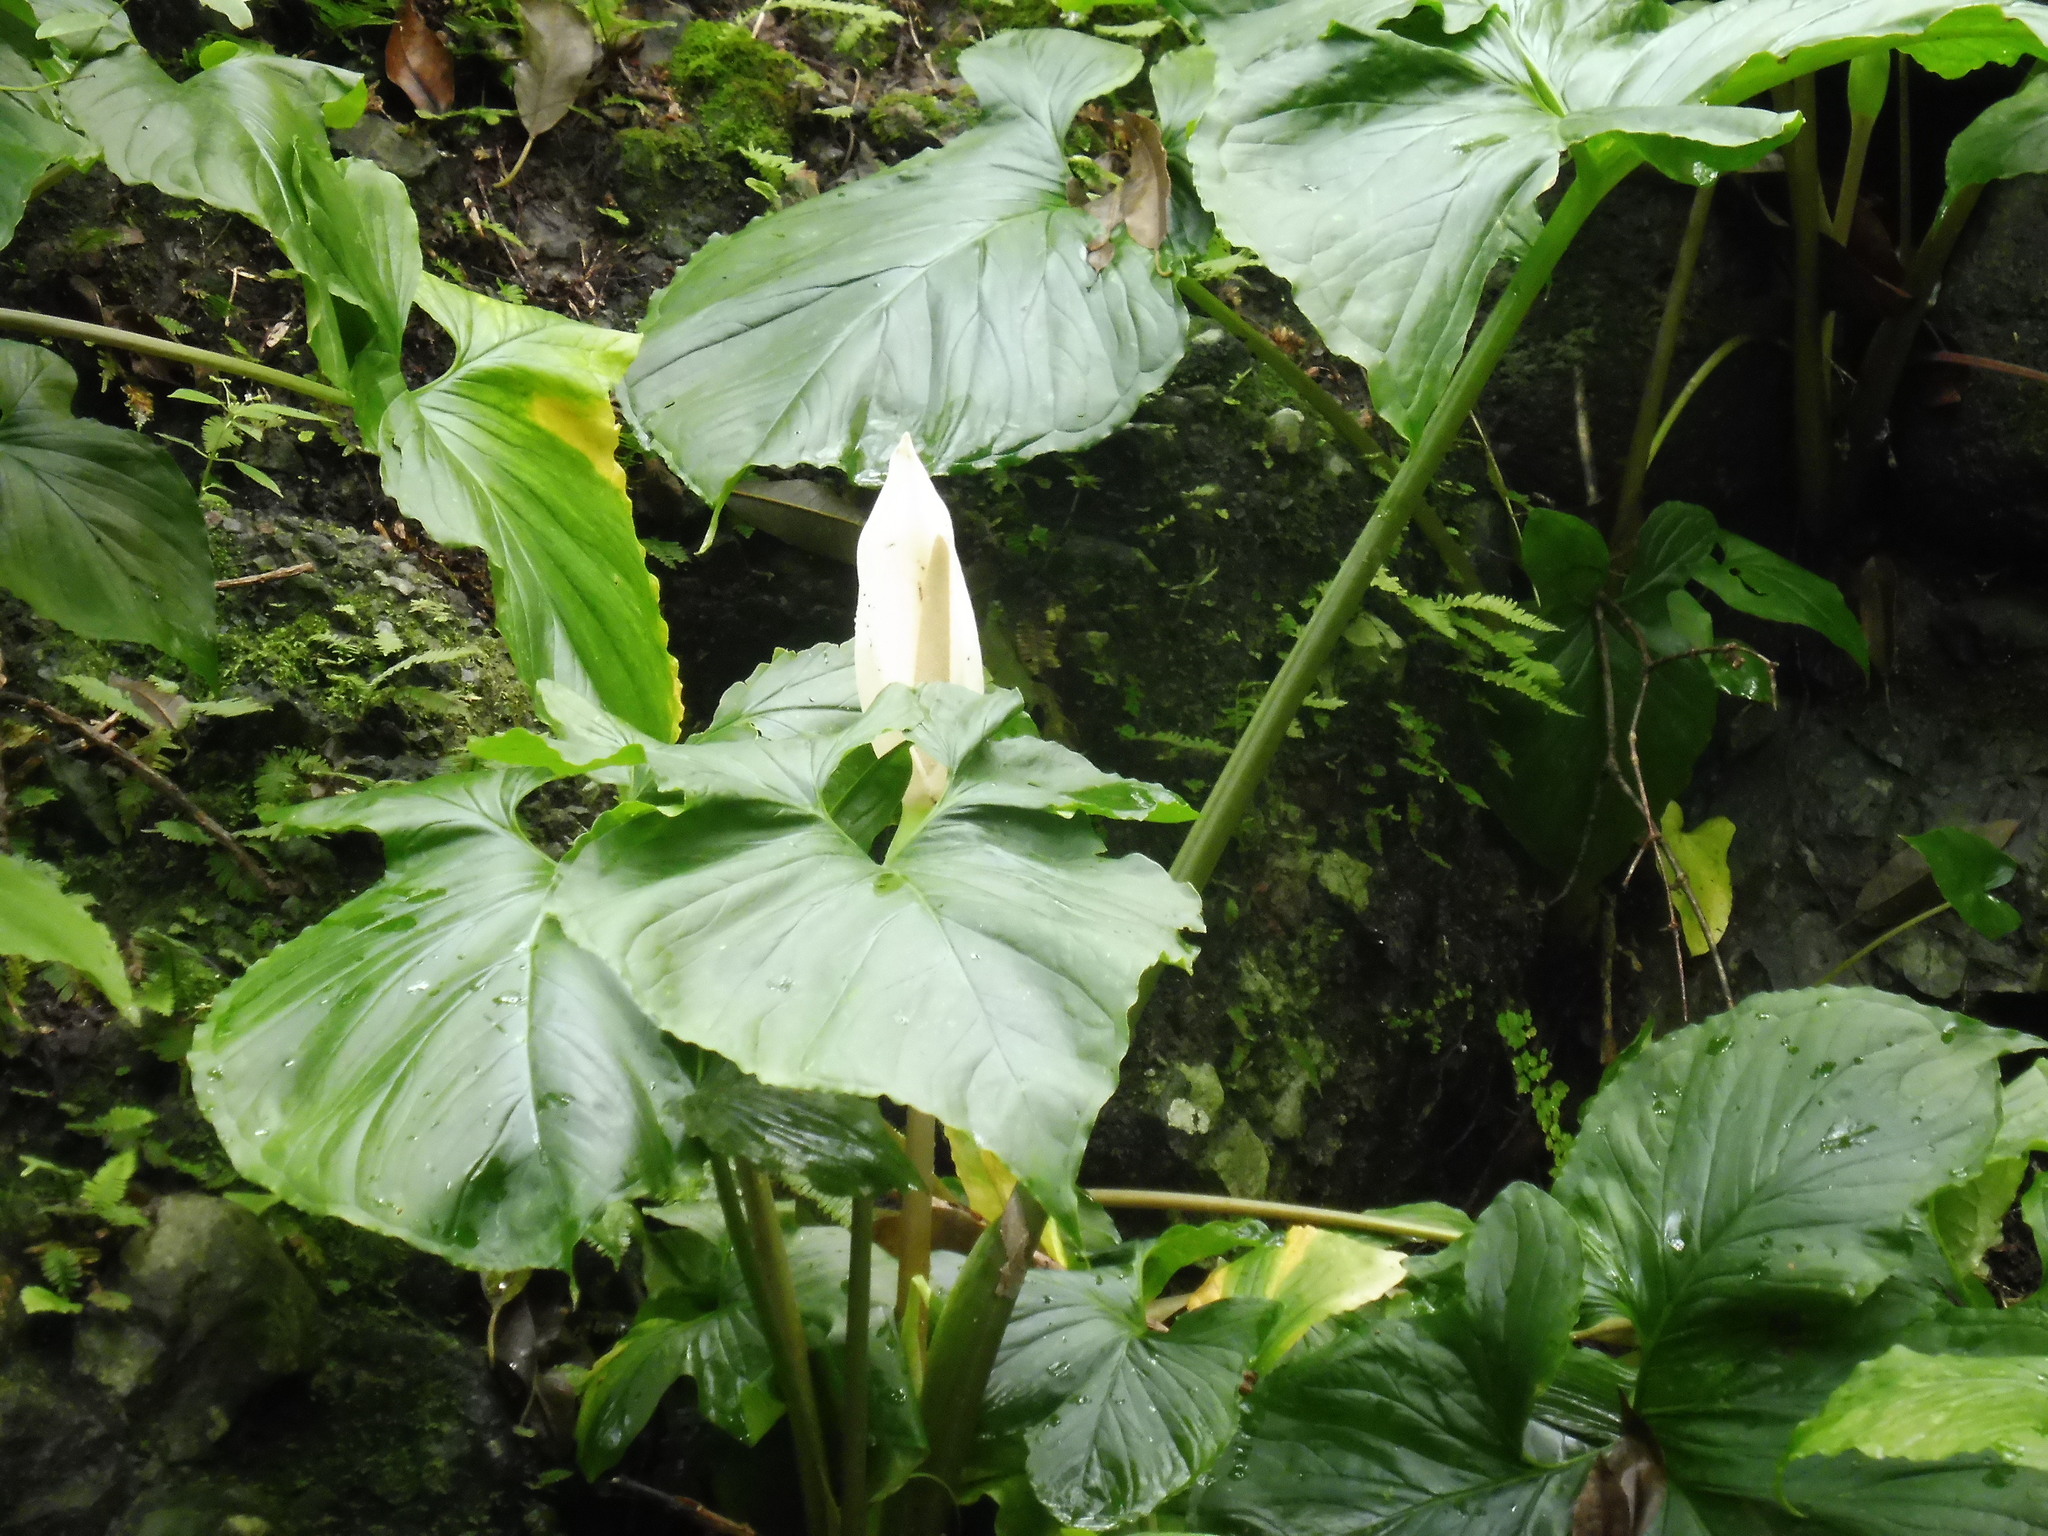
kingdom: Plantae
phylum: Tracheophyta
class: Liliopsida
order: Alismatales
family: Araceae
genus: Xanthosoma
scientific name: Xanthosoma pringlei
